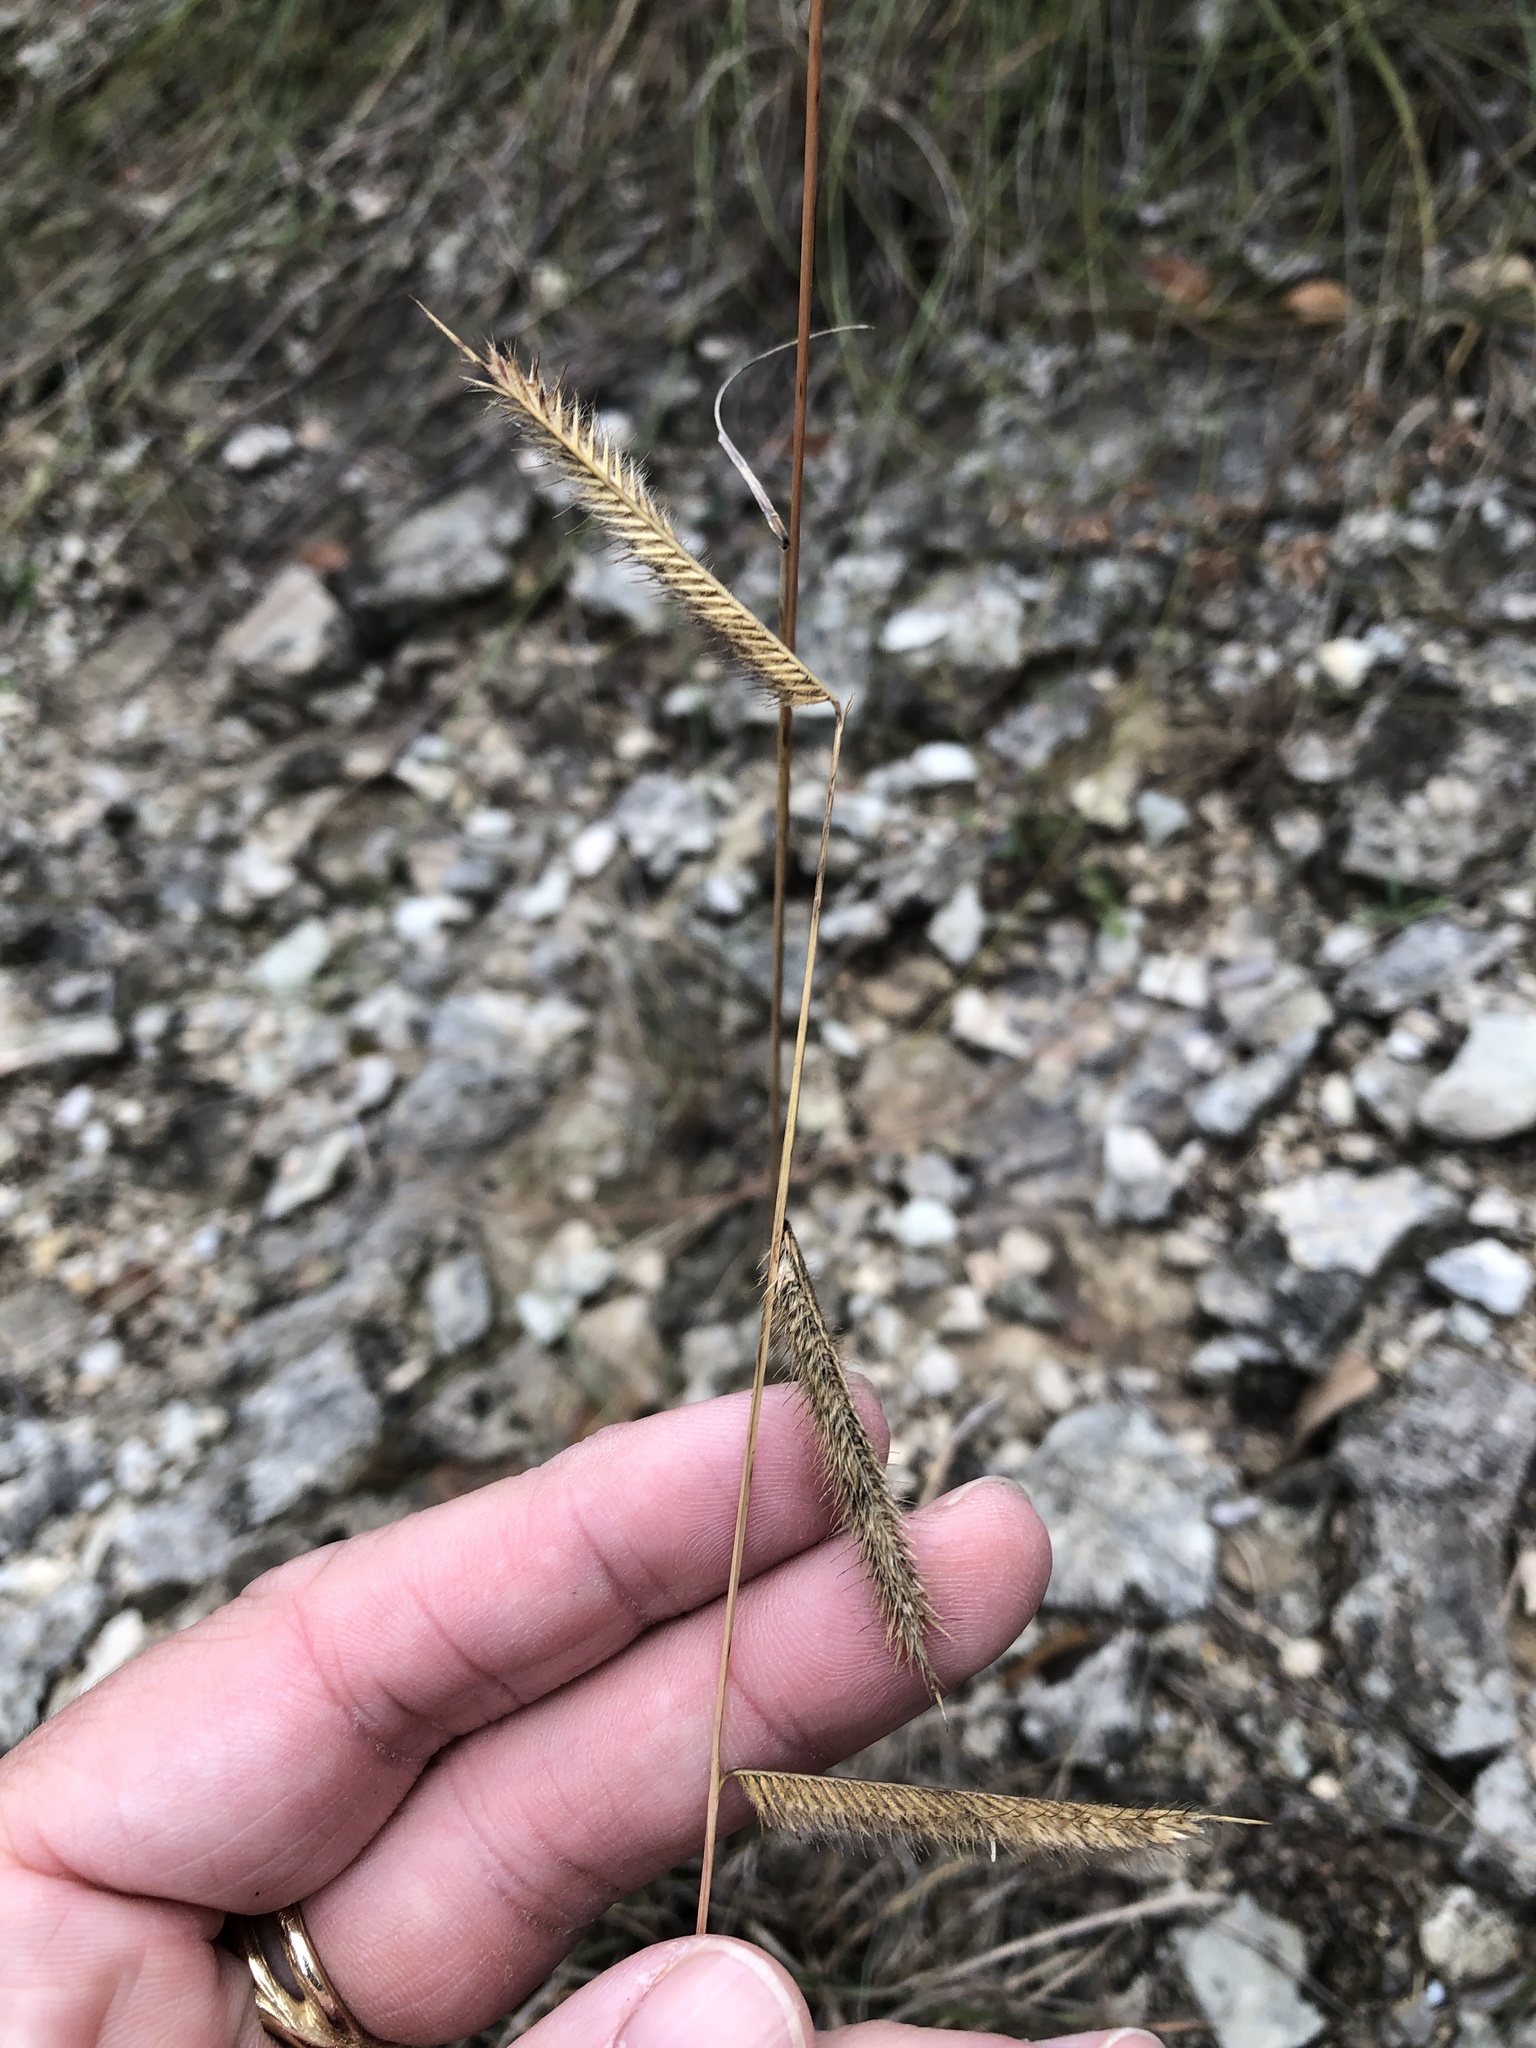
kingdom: Plantae
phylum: Tracheophyta
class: Liliopsida
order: Poales
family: Poaceae
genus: Bouteloua
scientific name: Bouteloua pectinata
